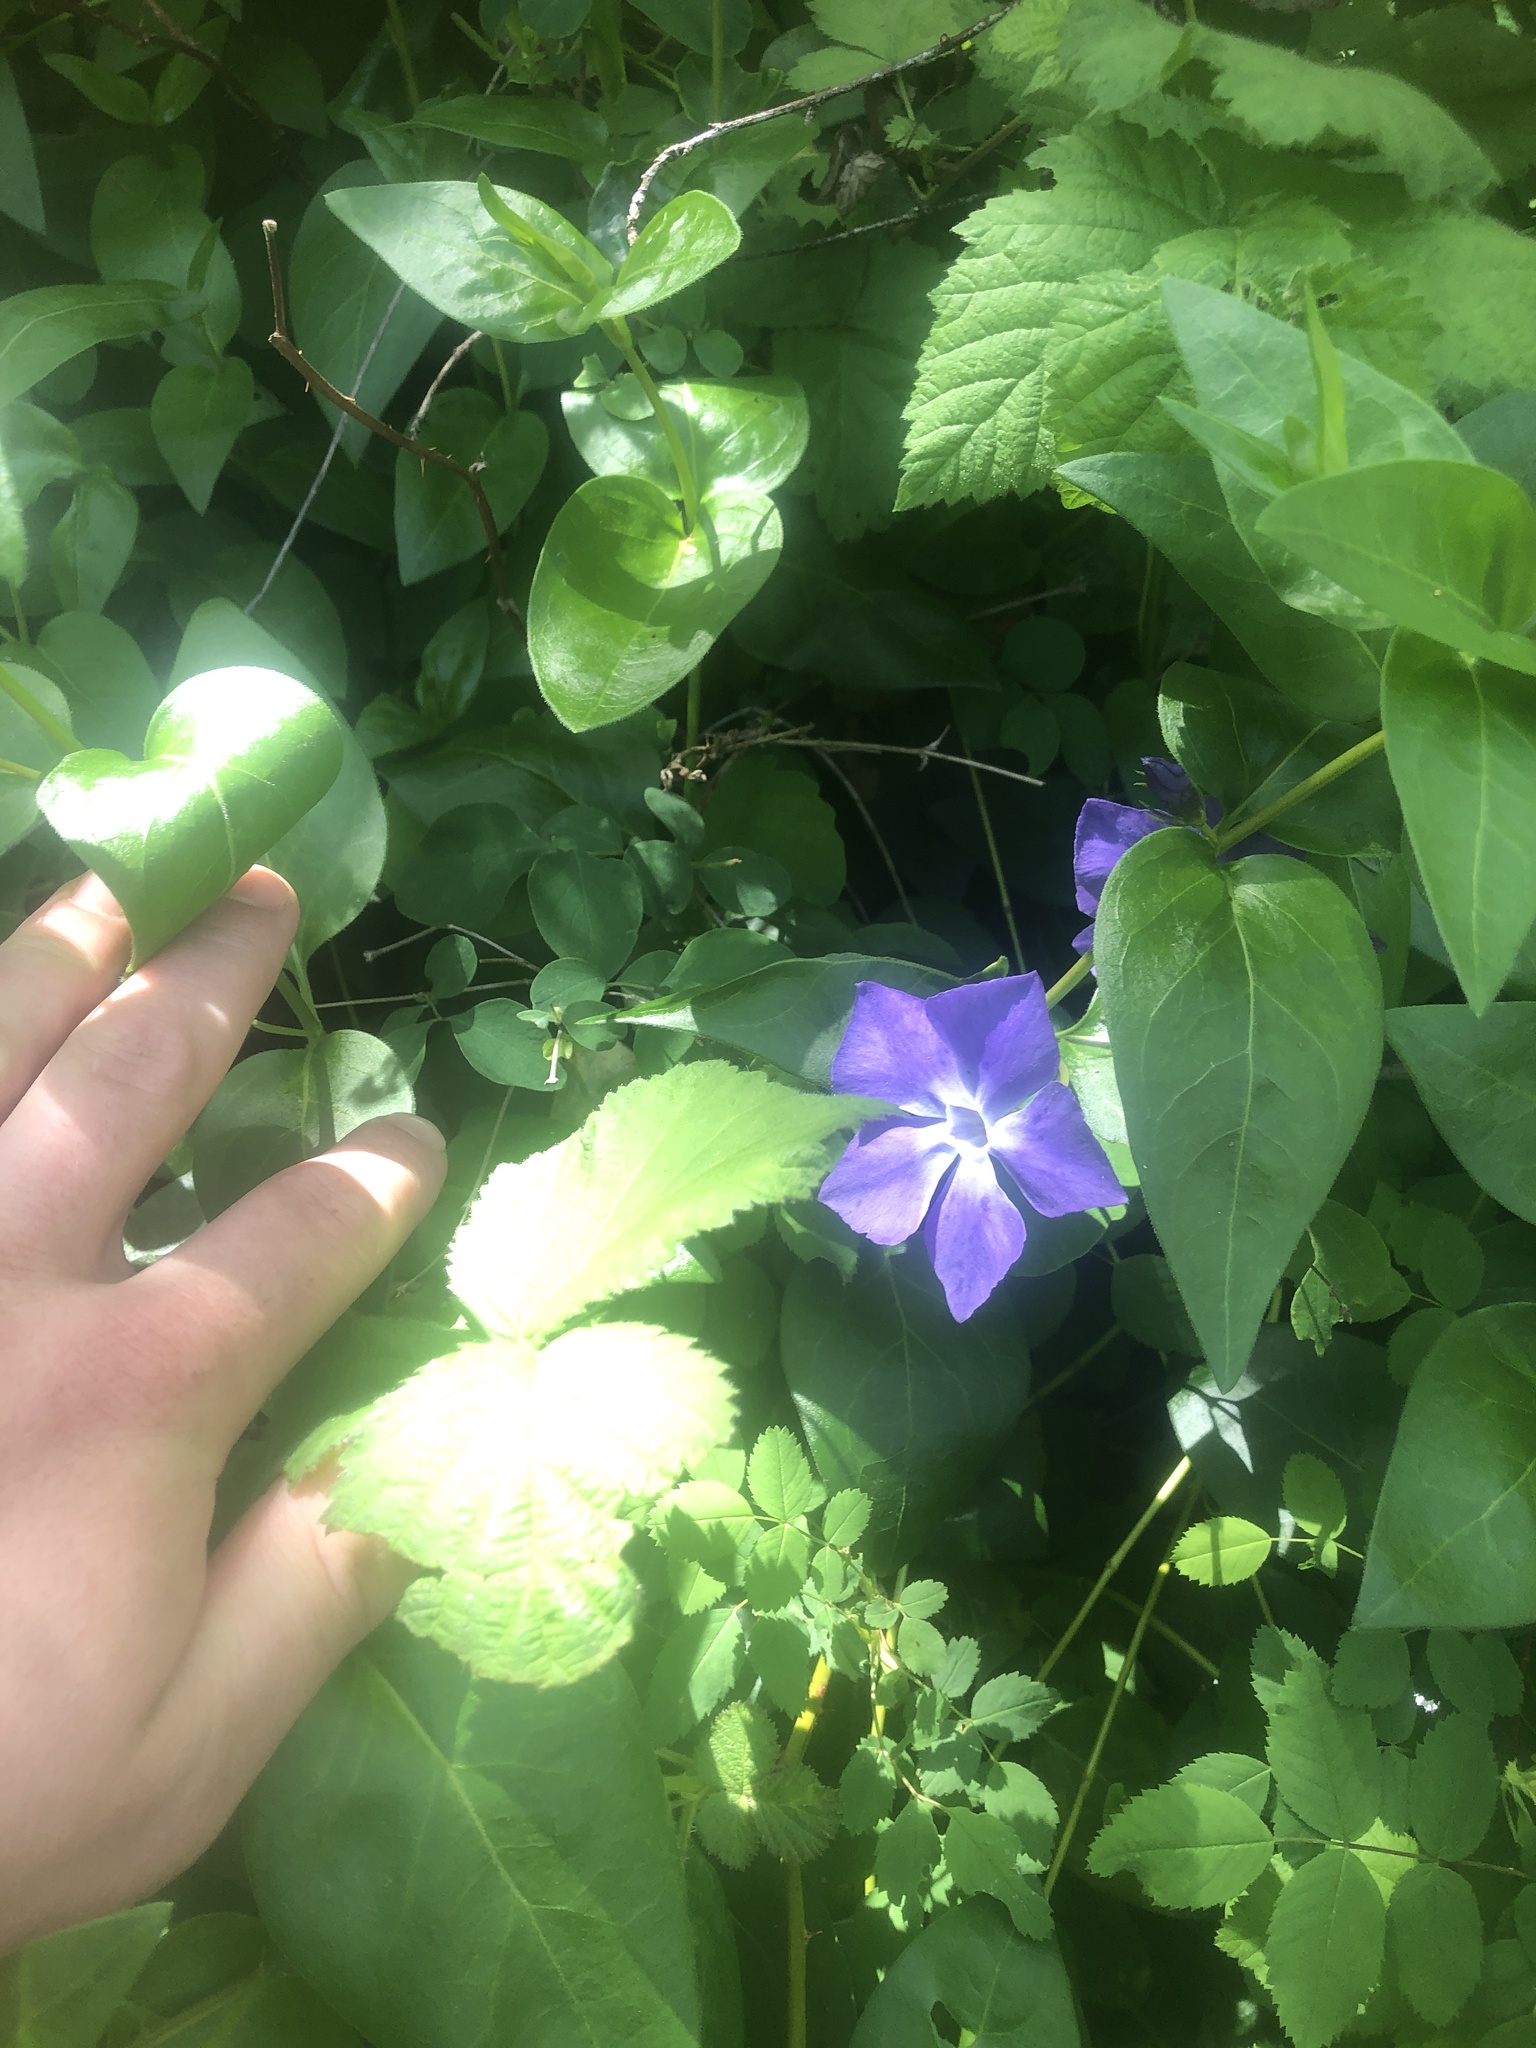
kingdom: Plantae
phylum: Tracheophyta
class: Magnoliopsida
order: Gentianales
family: Apocynaceae
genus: Vinca
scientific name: Vinca major
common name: Greater periwinkle
